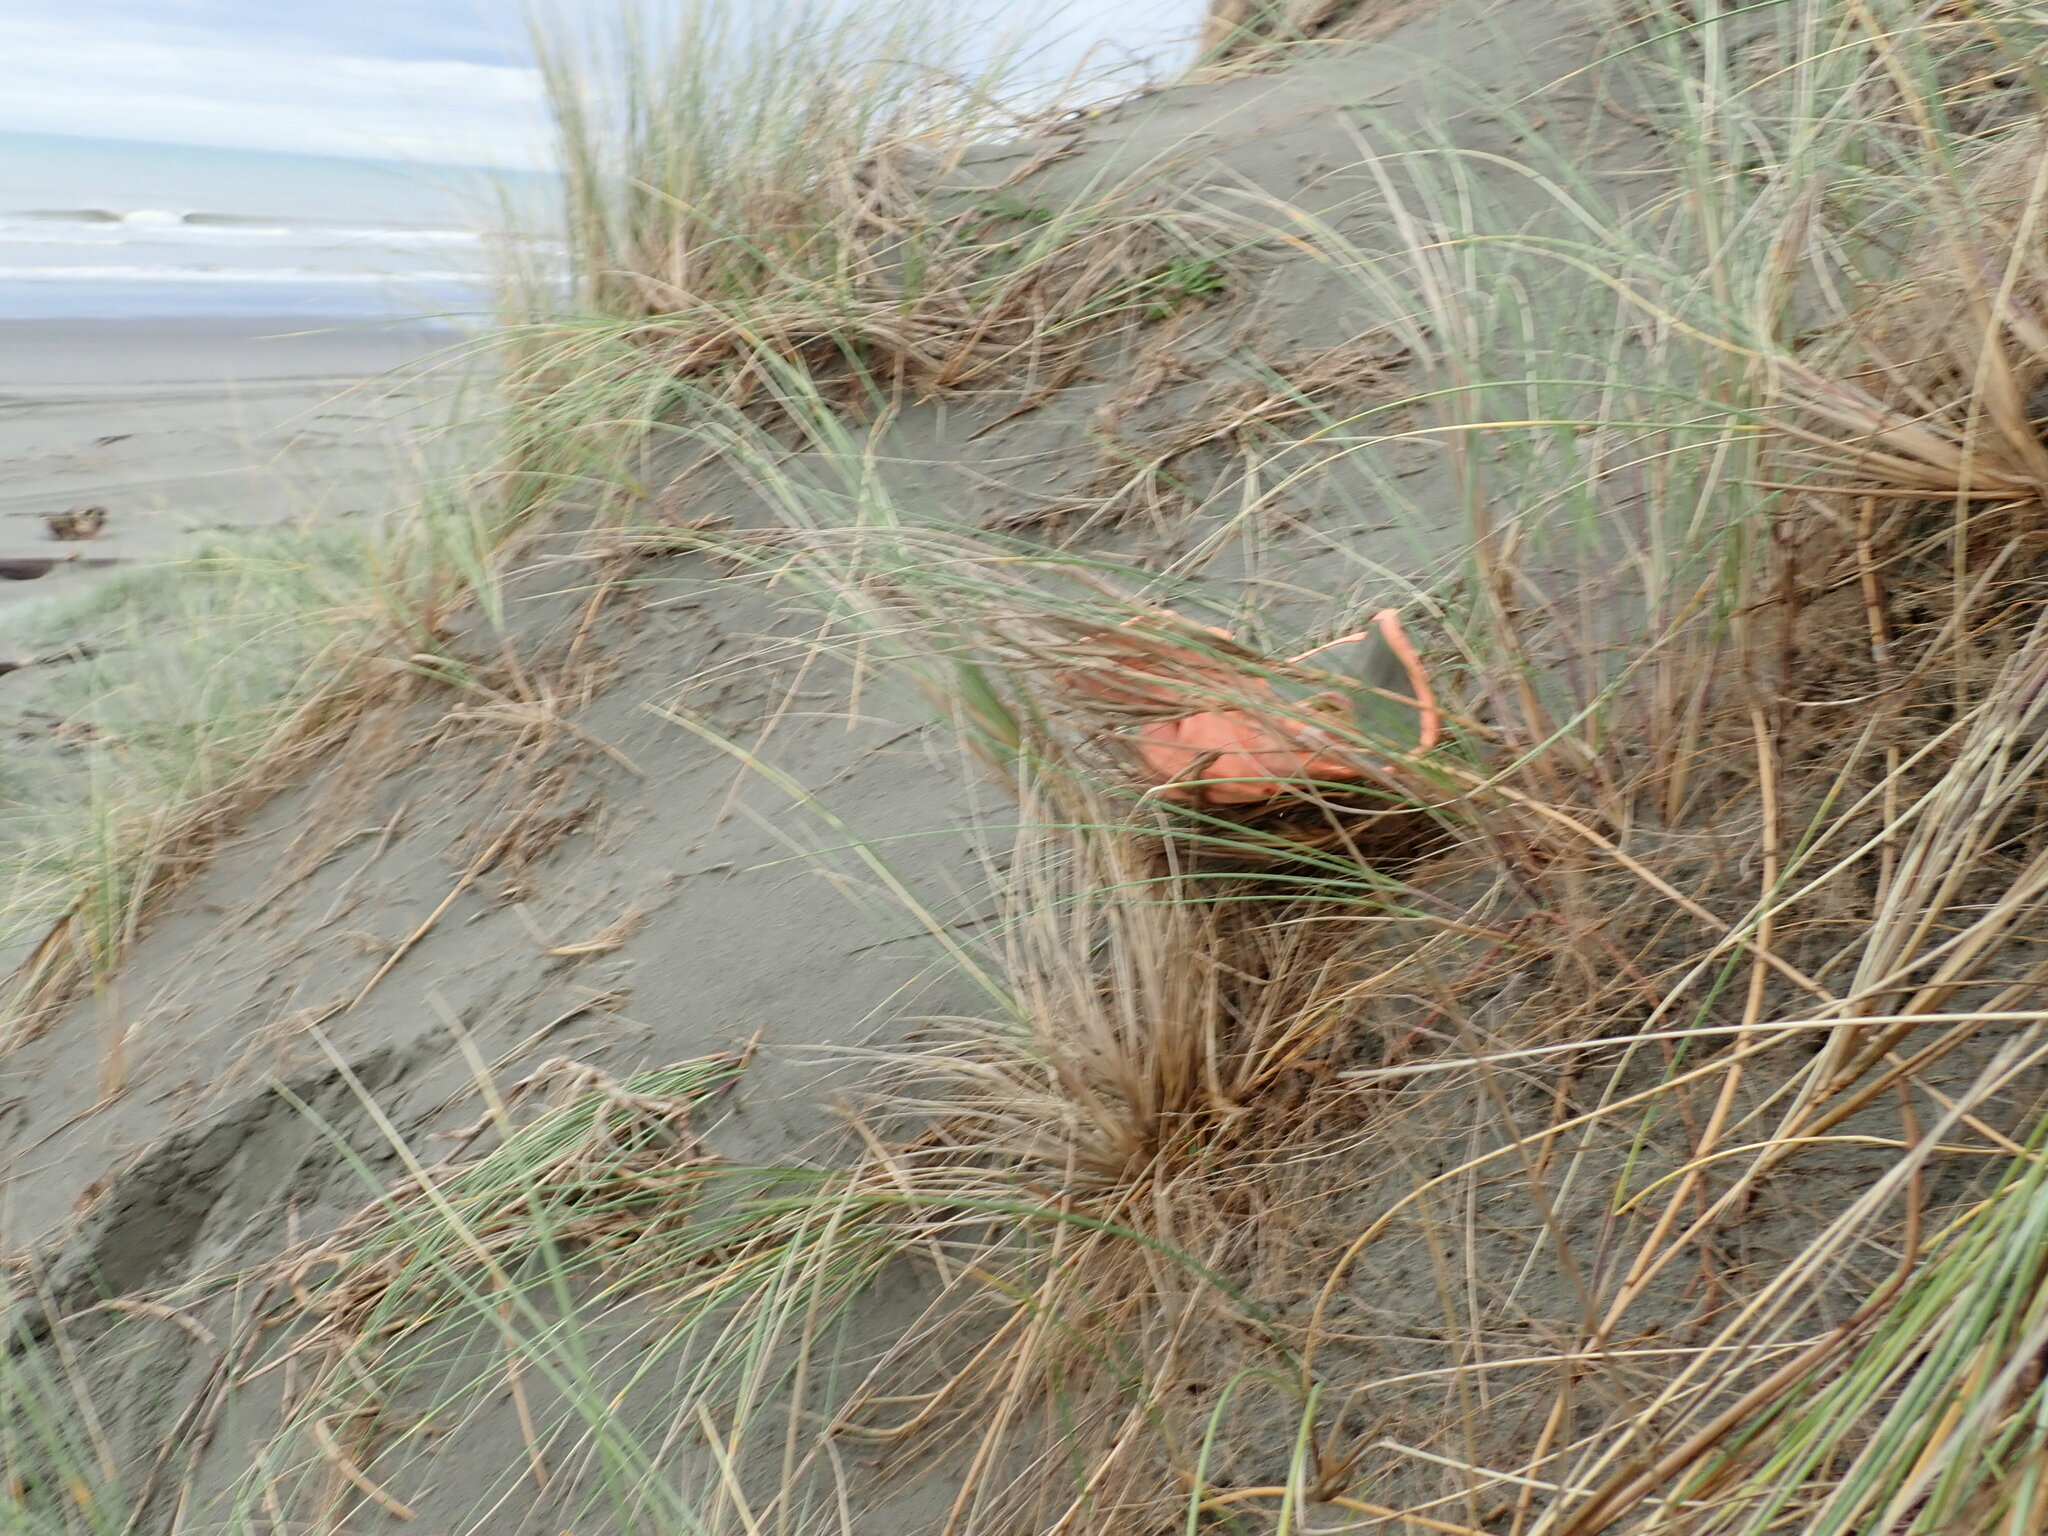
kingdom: Plantae
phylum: Tracheophyta
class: Magnoliopsida
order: Gentianales
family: Rubiaceae
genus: Coprosma
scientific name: Coprosma acerosa
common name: Sand coprosma
